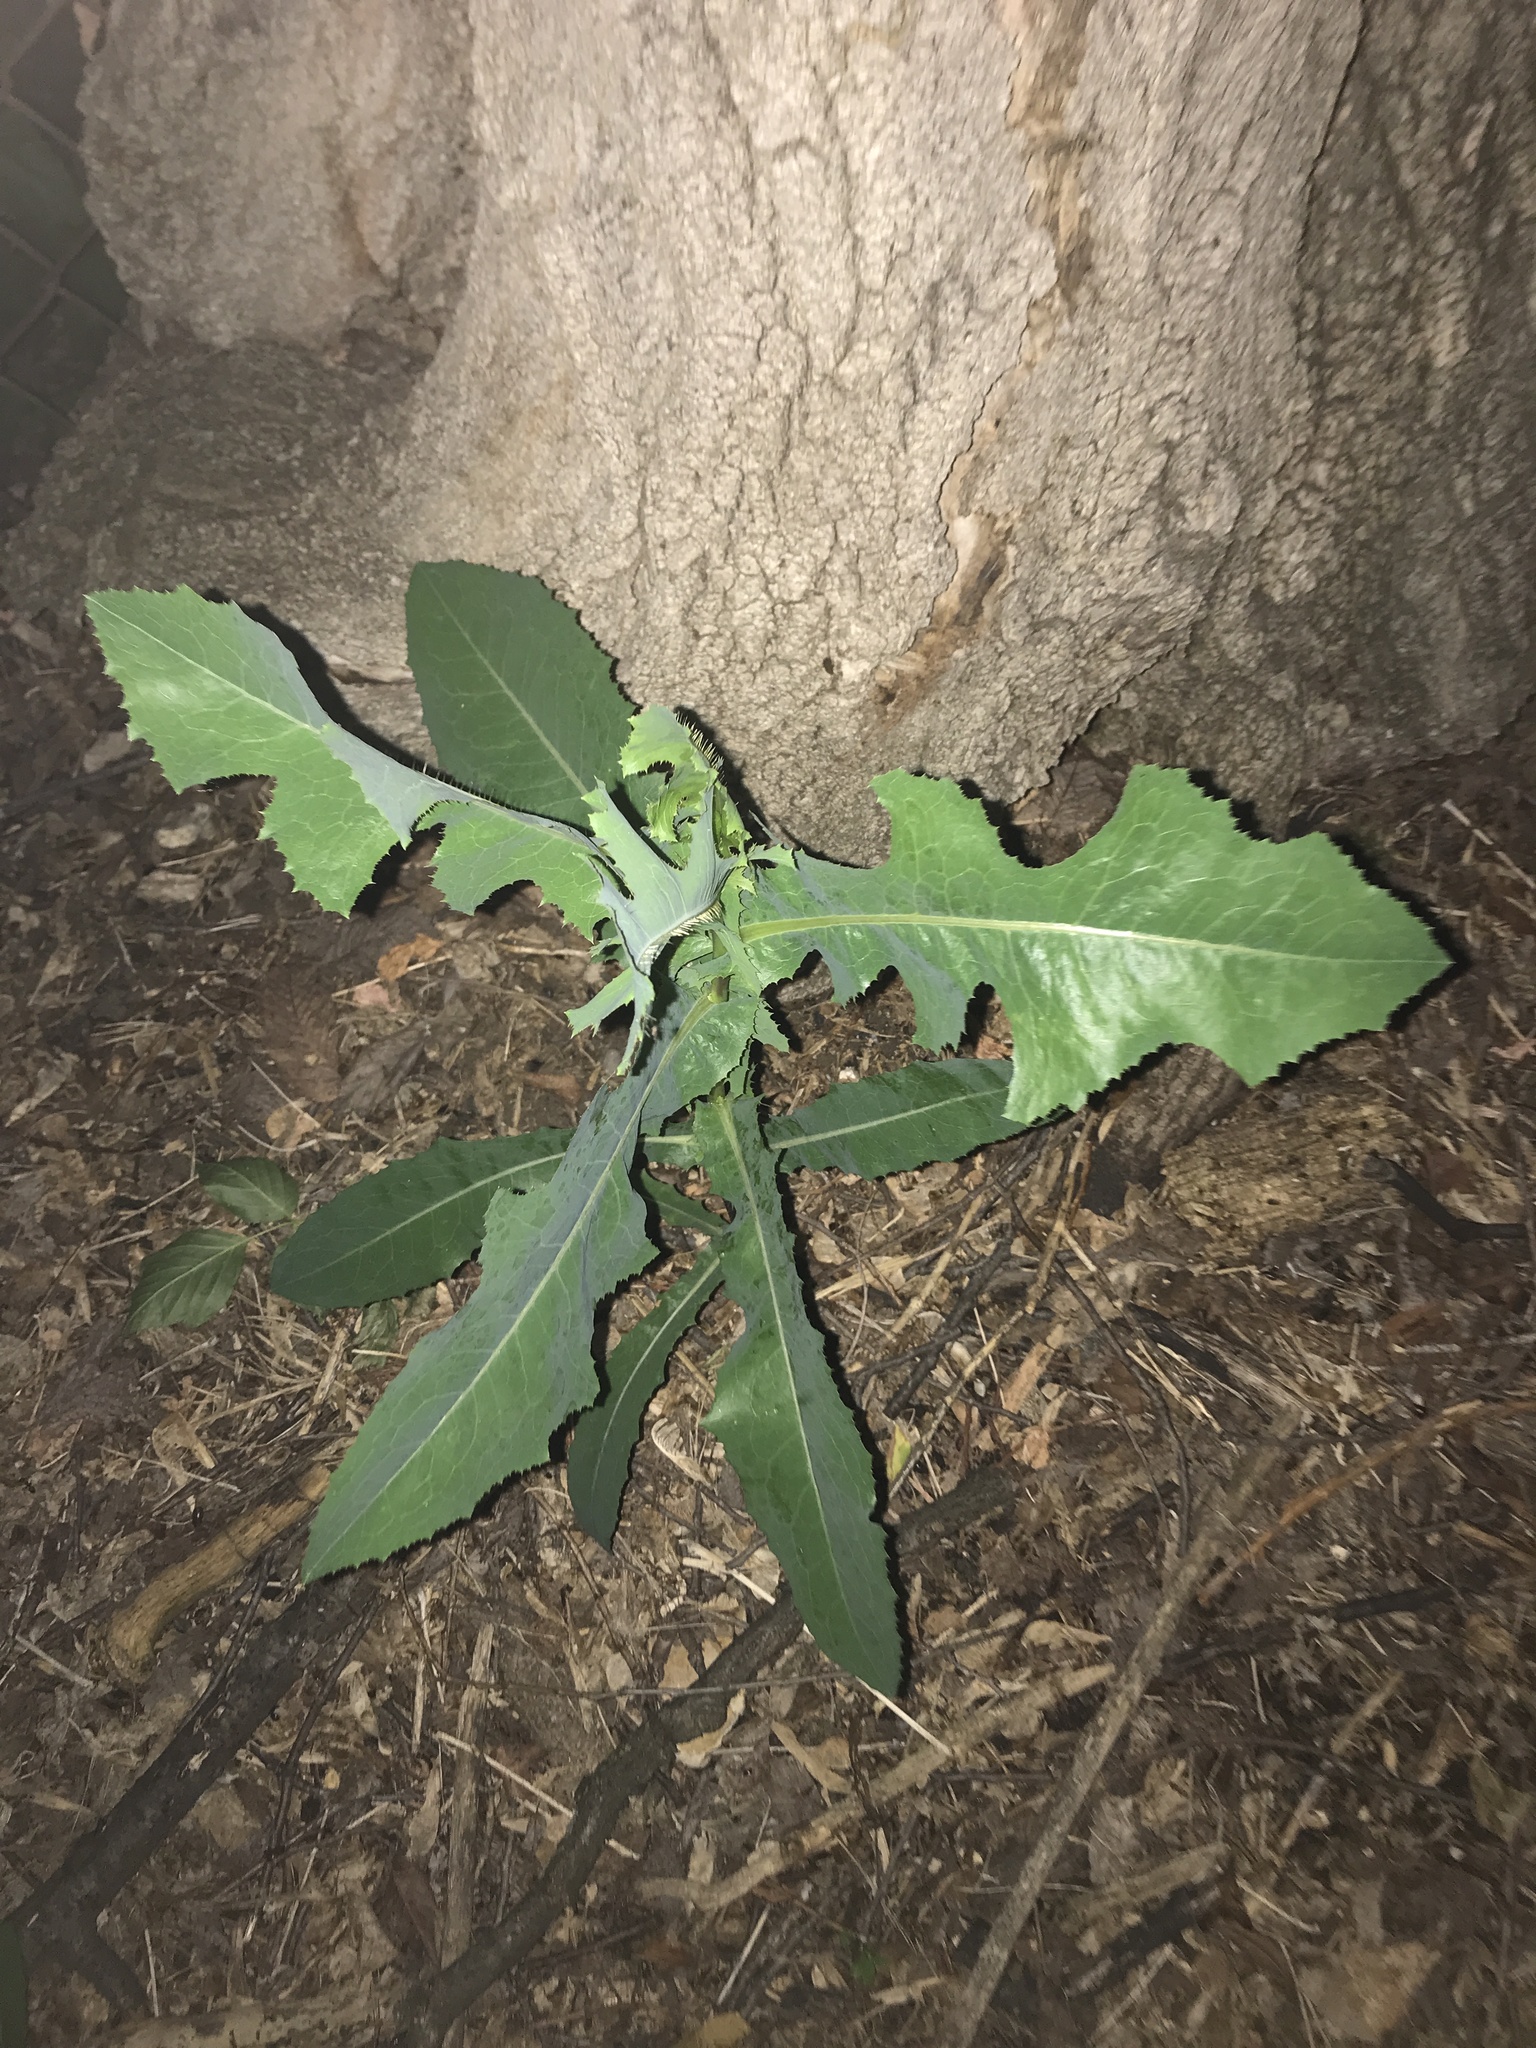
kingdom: Plantae
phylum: Tracheophyta
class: Magnoliopsida
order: Asterales
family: Asteraceae
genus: Lactuca
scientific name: Lactuca serriola
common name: Prickly lettuce
